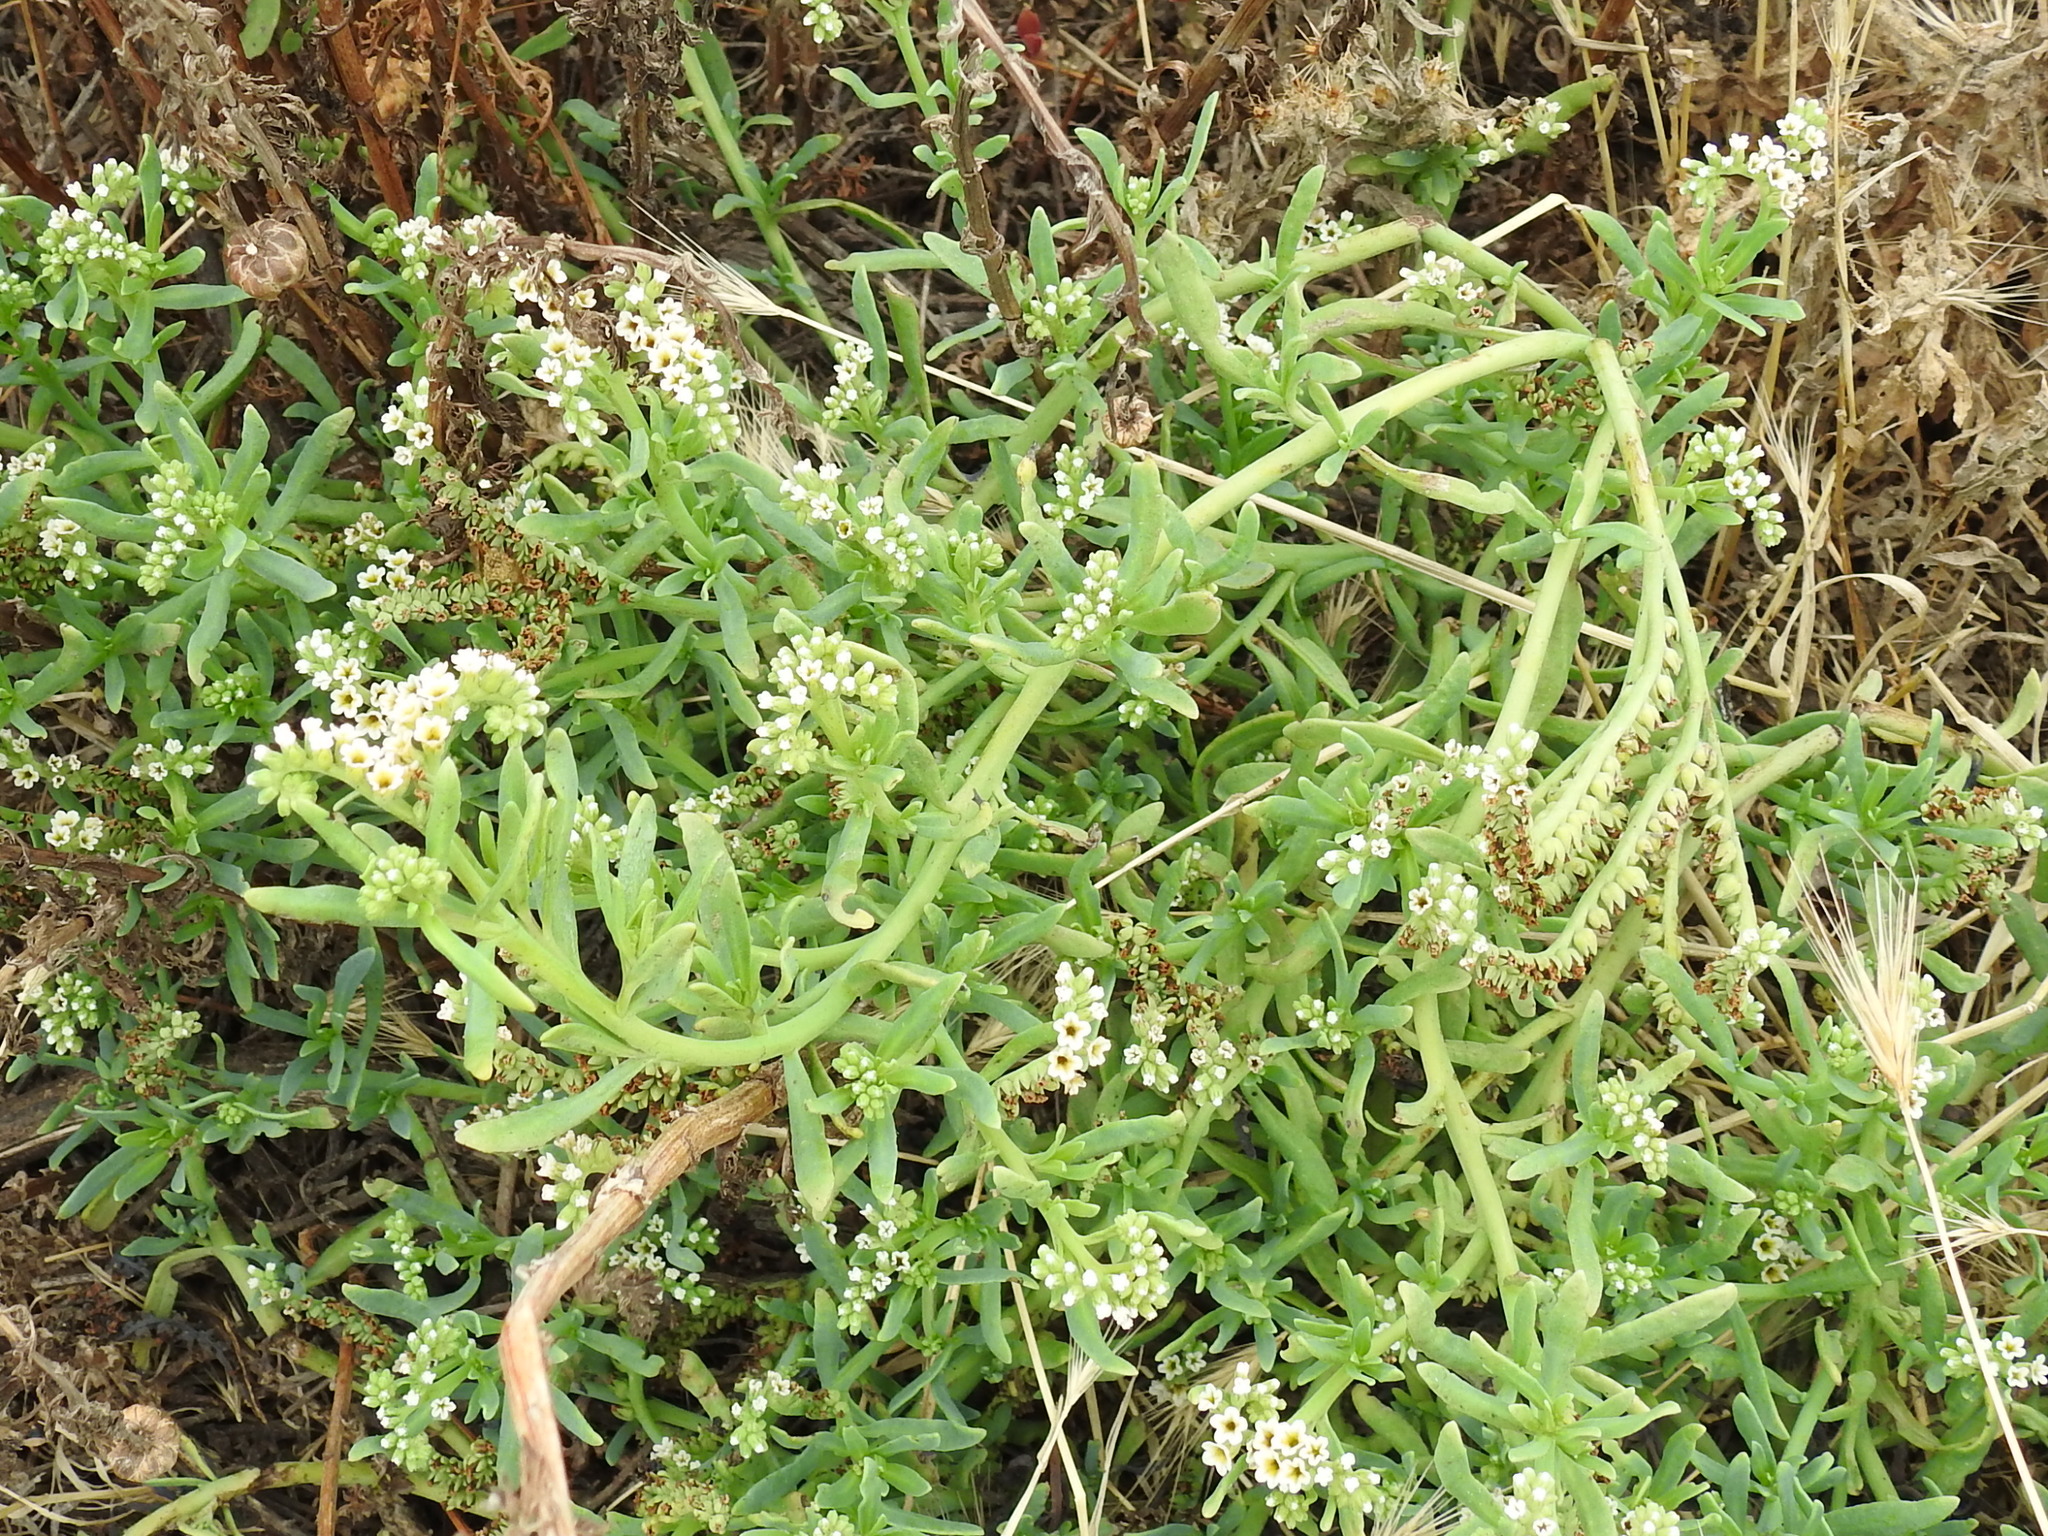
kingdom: Plantae
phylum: Tracheophyta
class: Magnoliopsida
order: Boraginales
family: Heliotropiaceae
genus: Heliotropium
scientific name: Heliotropium curassavicum
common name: Seaside heliotrope
